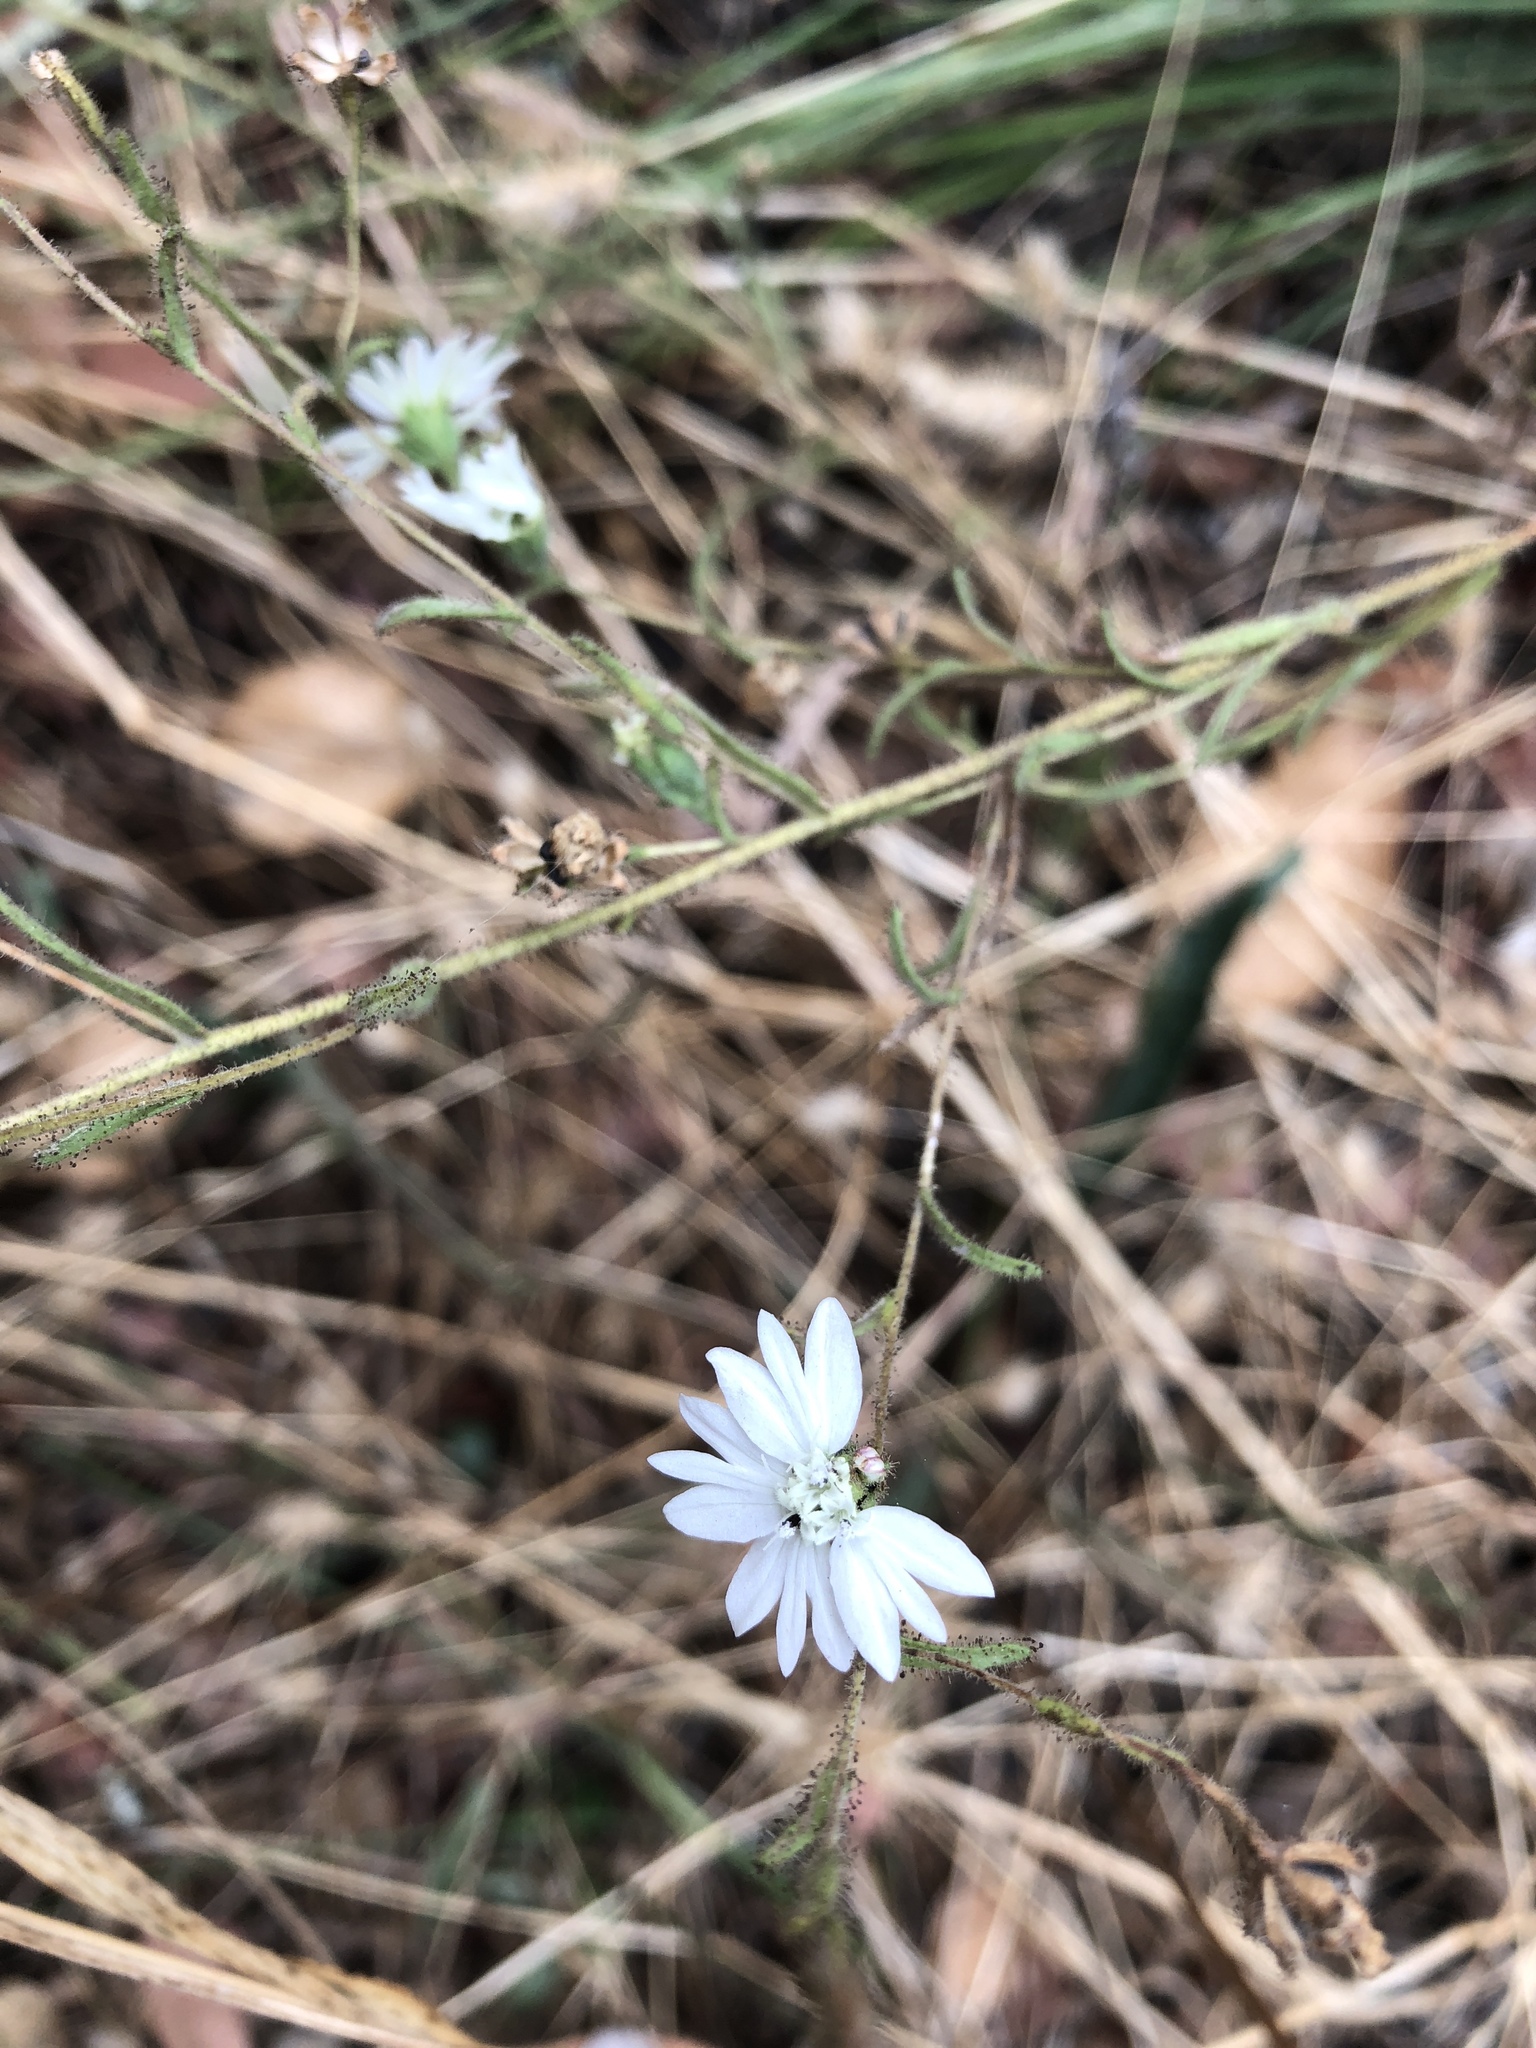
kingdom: Plantae
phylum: Tracheophyta
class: Magnoliopsida
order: Asterales
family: Asteraceae
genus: Hemizonia
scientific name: Hemizonia congesta
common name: Hayfield tarweed
